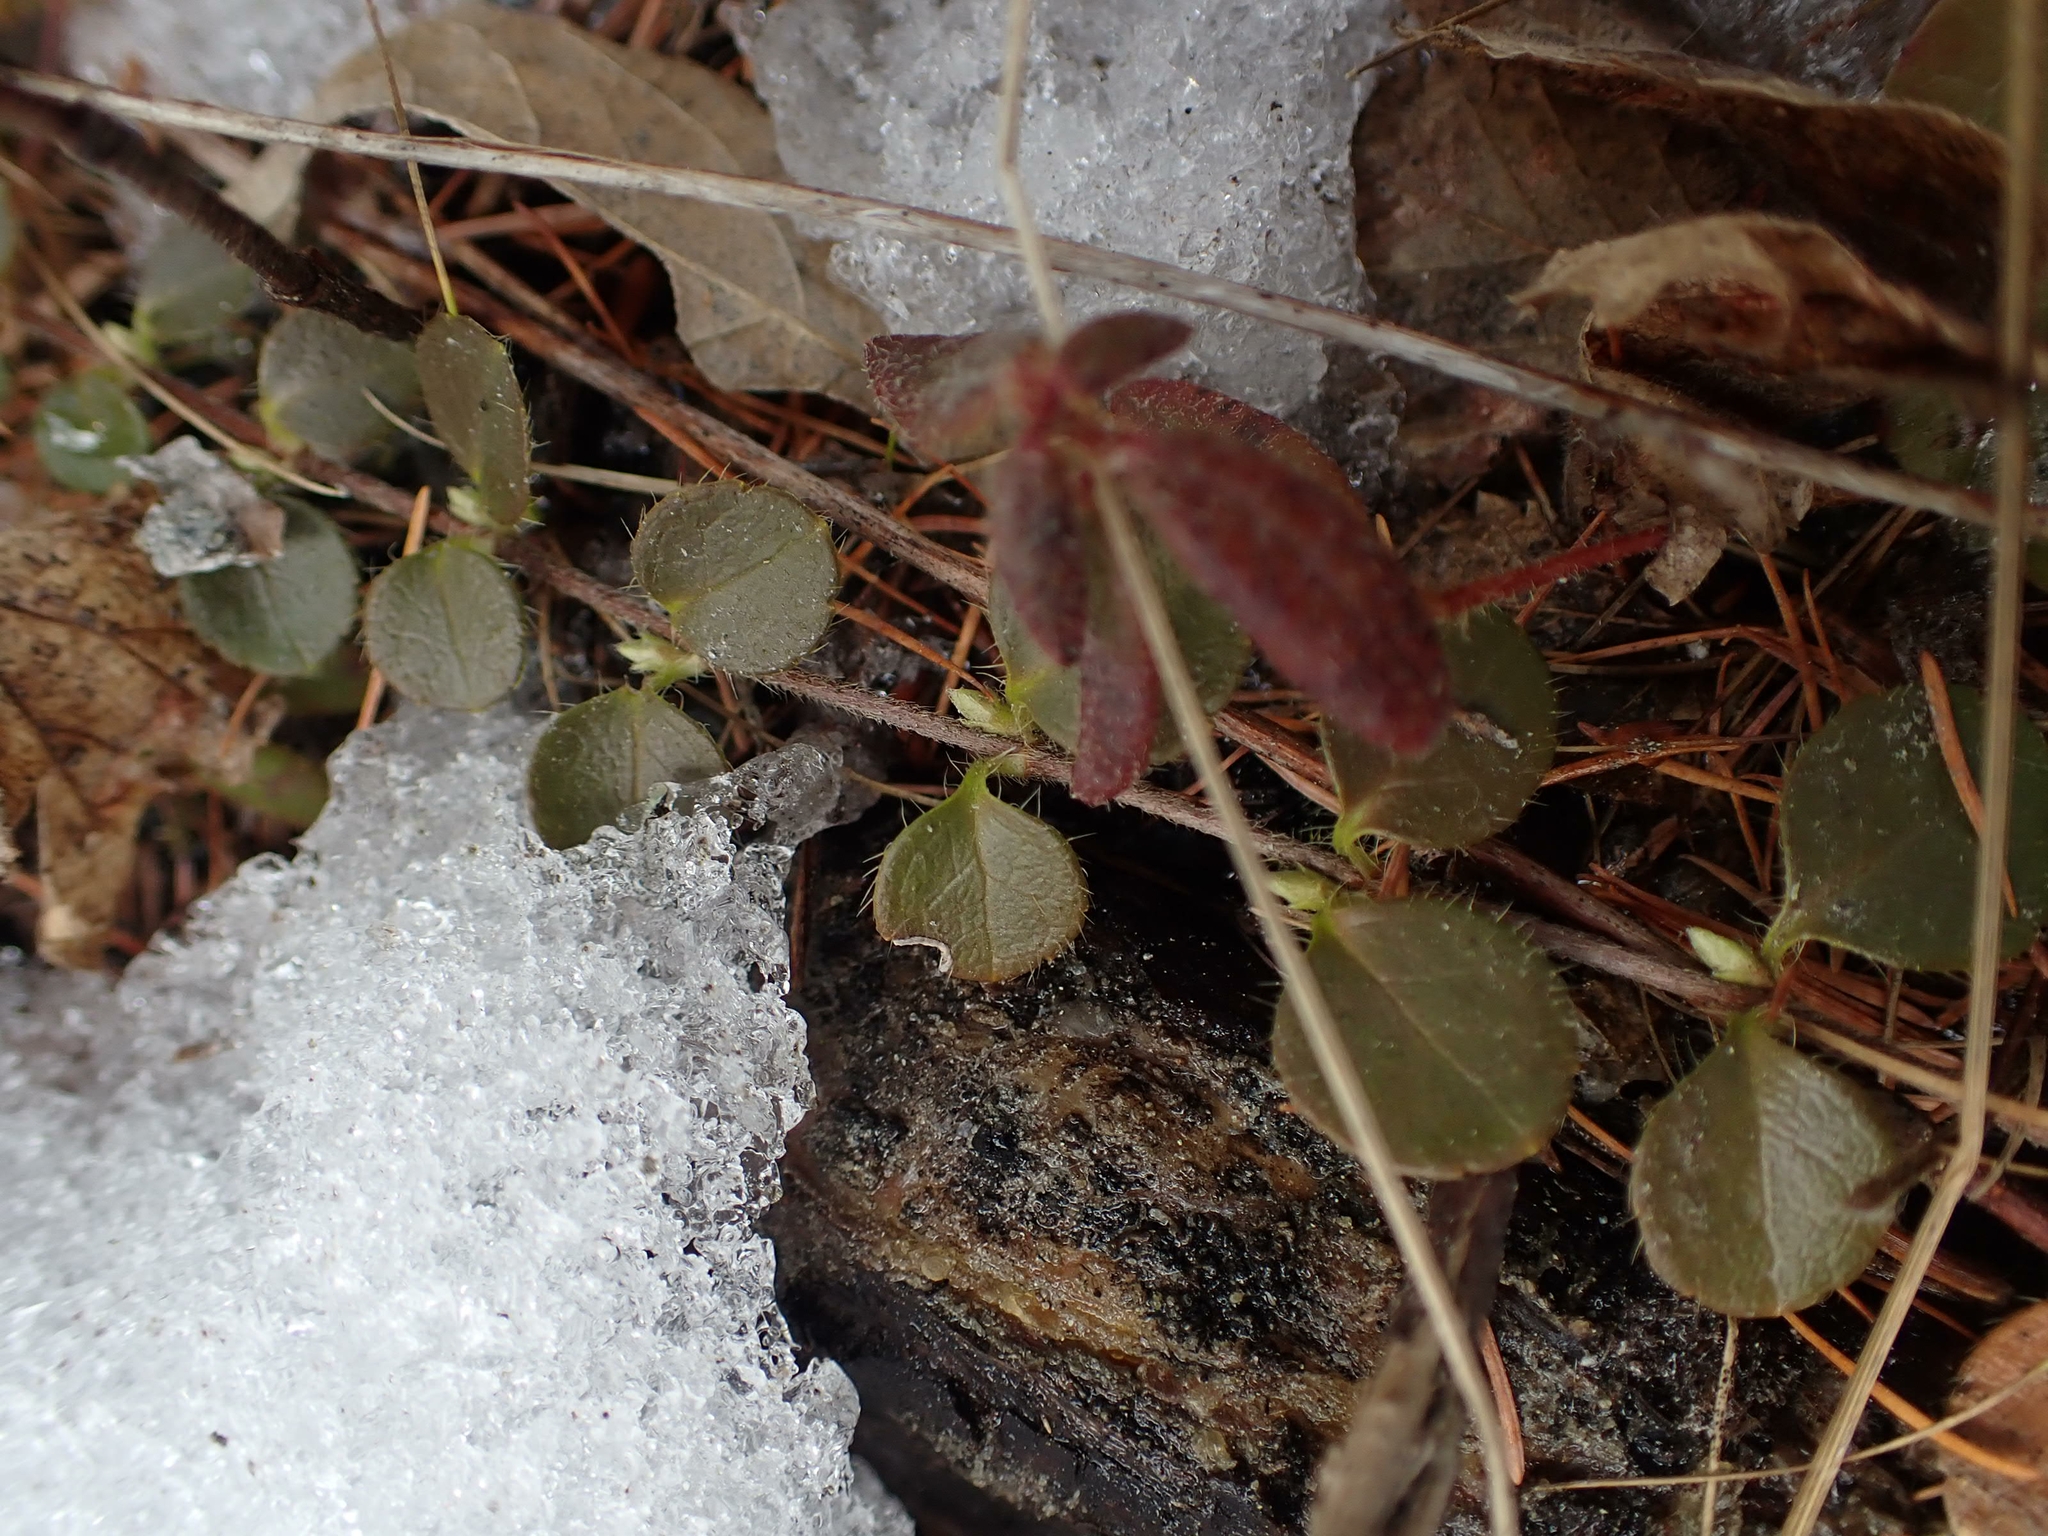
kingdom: Plantae
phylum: Tracheophyta
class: Magnoliopsida
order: Dipsacales
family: Caprifoliaceae
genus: Linnaea
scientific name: Linnaea borealis
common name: Twinflower
